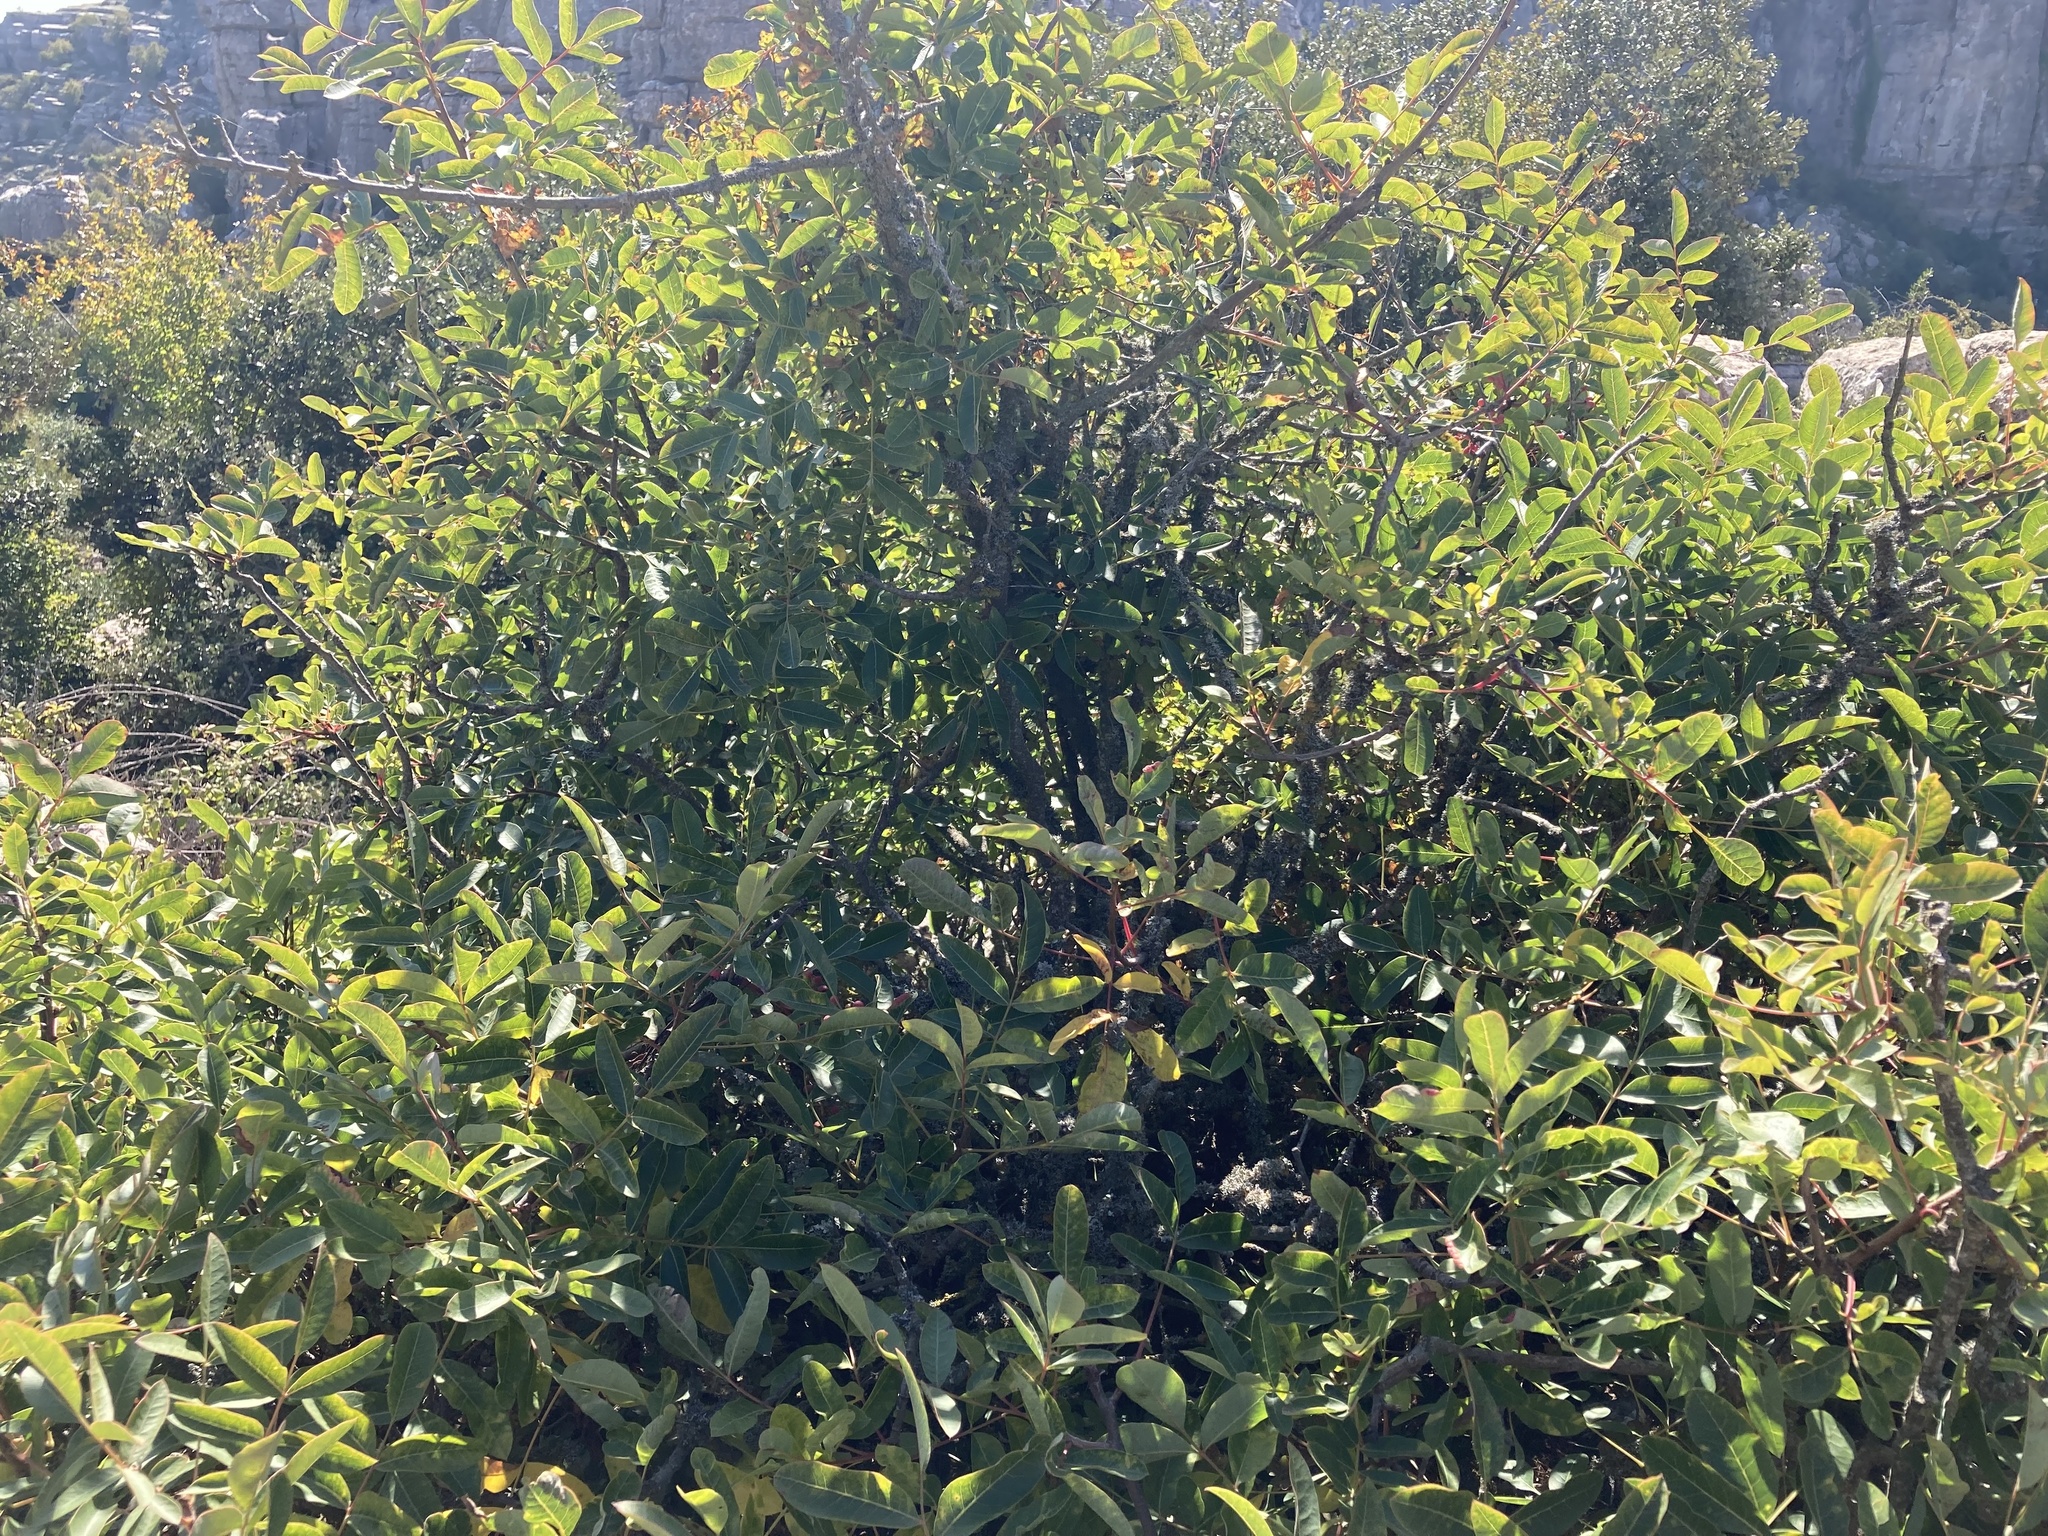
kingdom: Plantae
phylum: Tracheophyta
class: Magnoliopsida
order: Sapindales
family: Anacardiaceae
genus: Pistacia
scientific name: Pistacia terebinthus
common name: Terebinth
